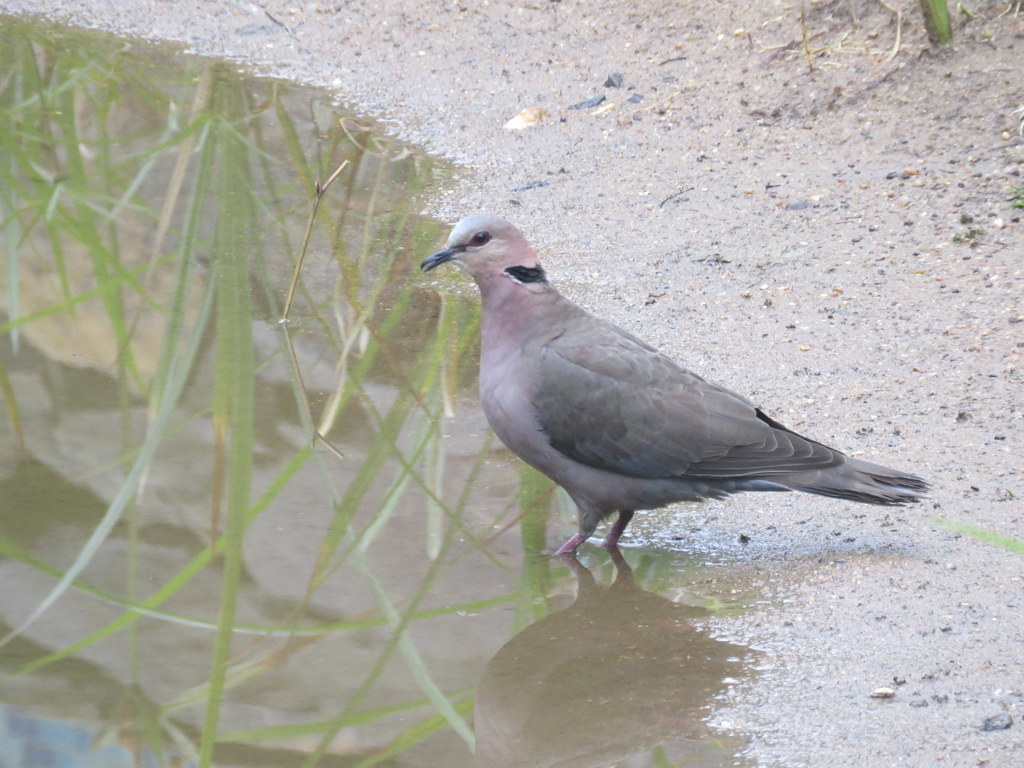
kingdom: Animalia
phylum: Chordata
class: Aves
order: Columbiformes
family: Columbidae
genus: Streptopelia
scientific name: Streptopelia semitorquata
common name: Red-eyed dove
